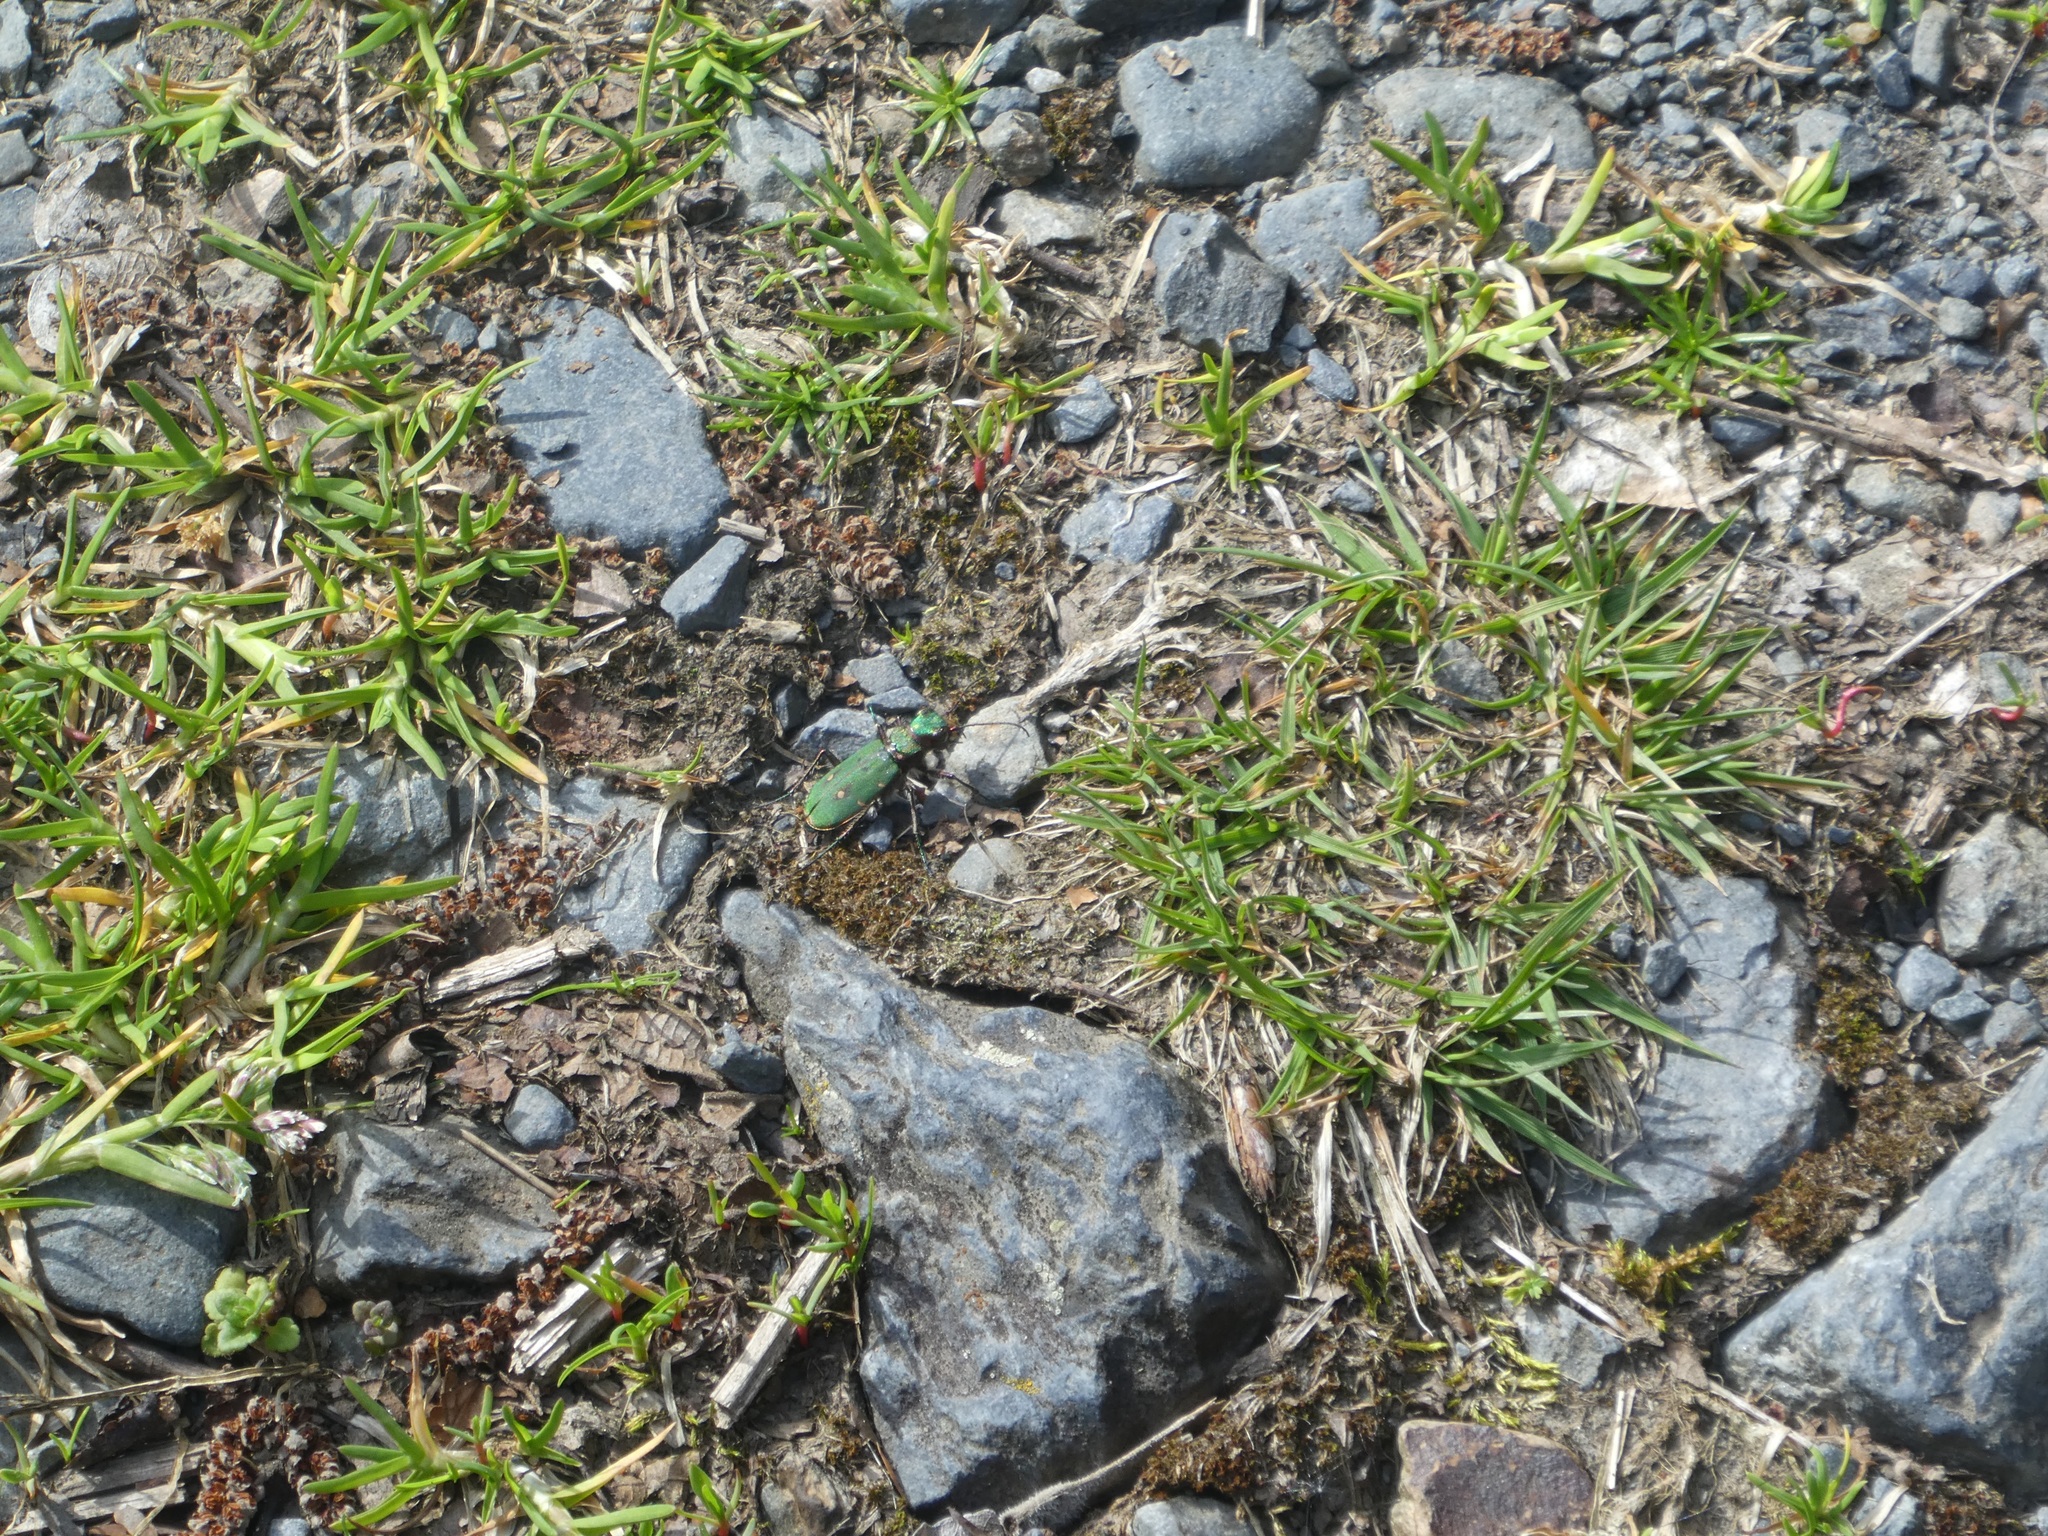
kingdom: Animalia
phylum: Arthropoda
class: Insecta
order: Coleoptera
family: Carabidae
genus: Cicindela
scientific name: Cicindela campestris
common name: Common tiger beetle
